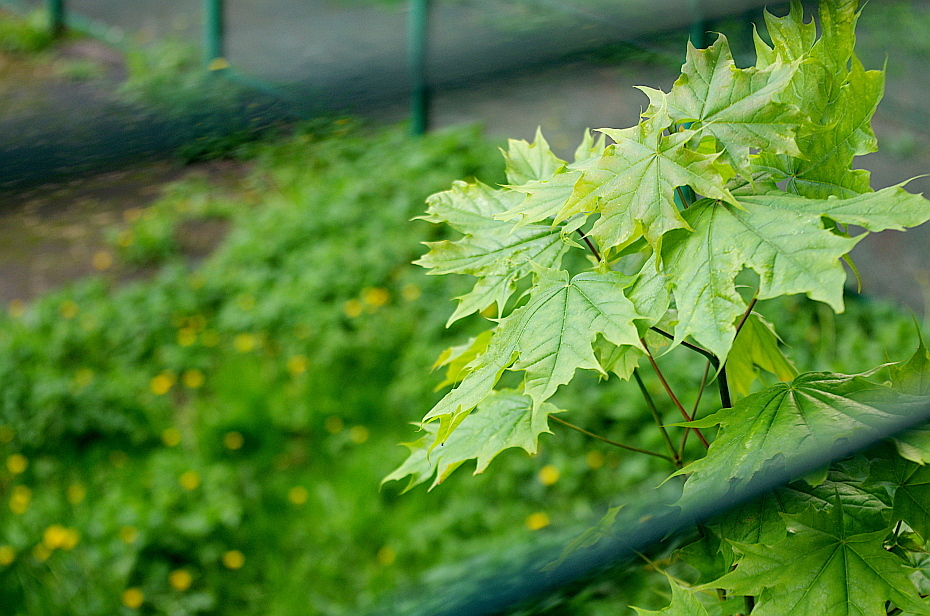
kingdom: Plantae
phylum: Tracheophyta
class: Magnoliopsida
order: Sapindales
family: Sapindaceae
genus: Acer
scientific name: Acer platanoides
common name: Norway maple
